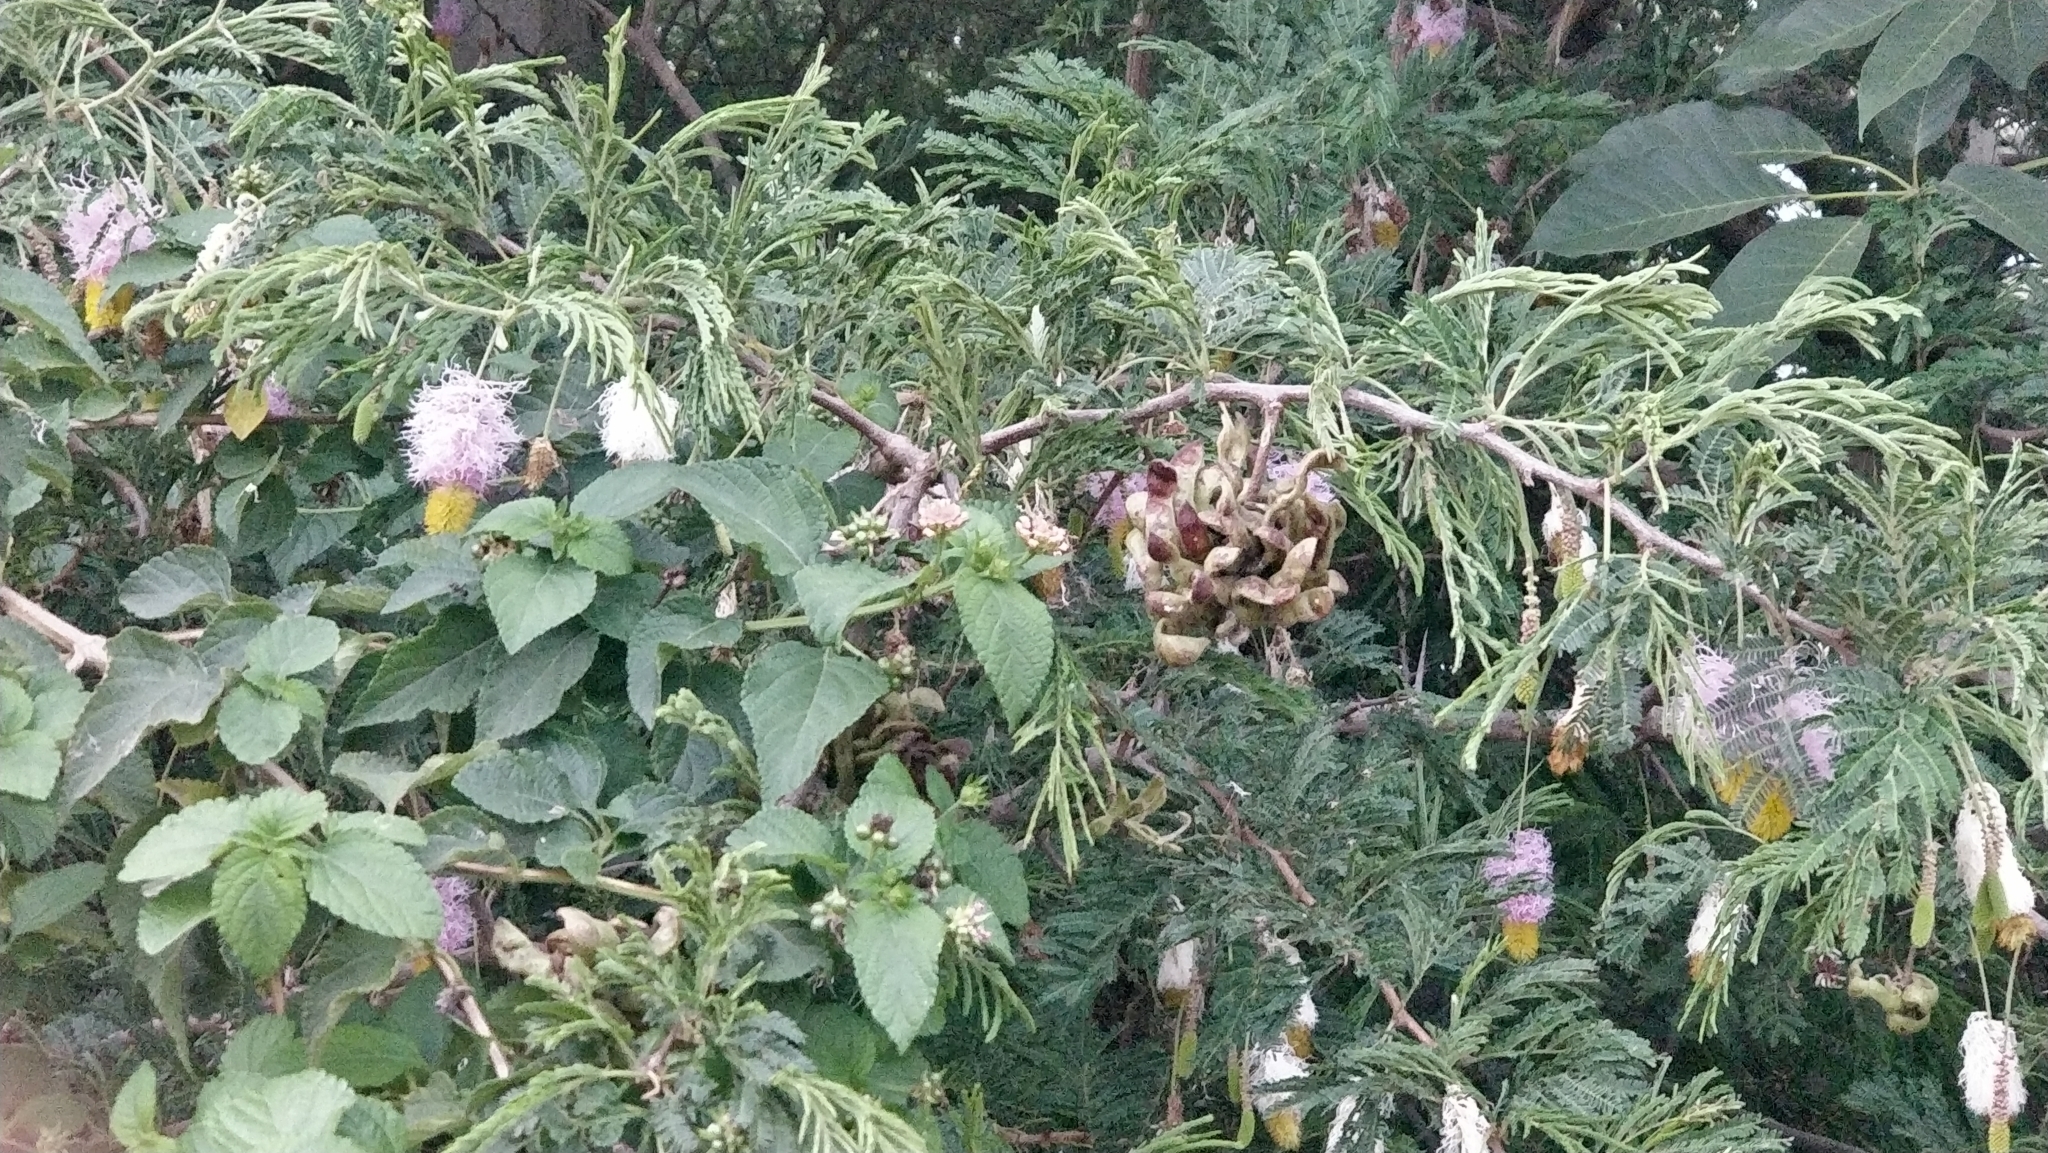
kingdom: Plantae
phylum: Tracheophyta
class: Magnoliopsida
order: Fabales
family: Fabaceae
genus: Dichrostachys
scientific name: Dichrostachys cinerea
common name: Sicklebush
